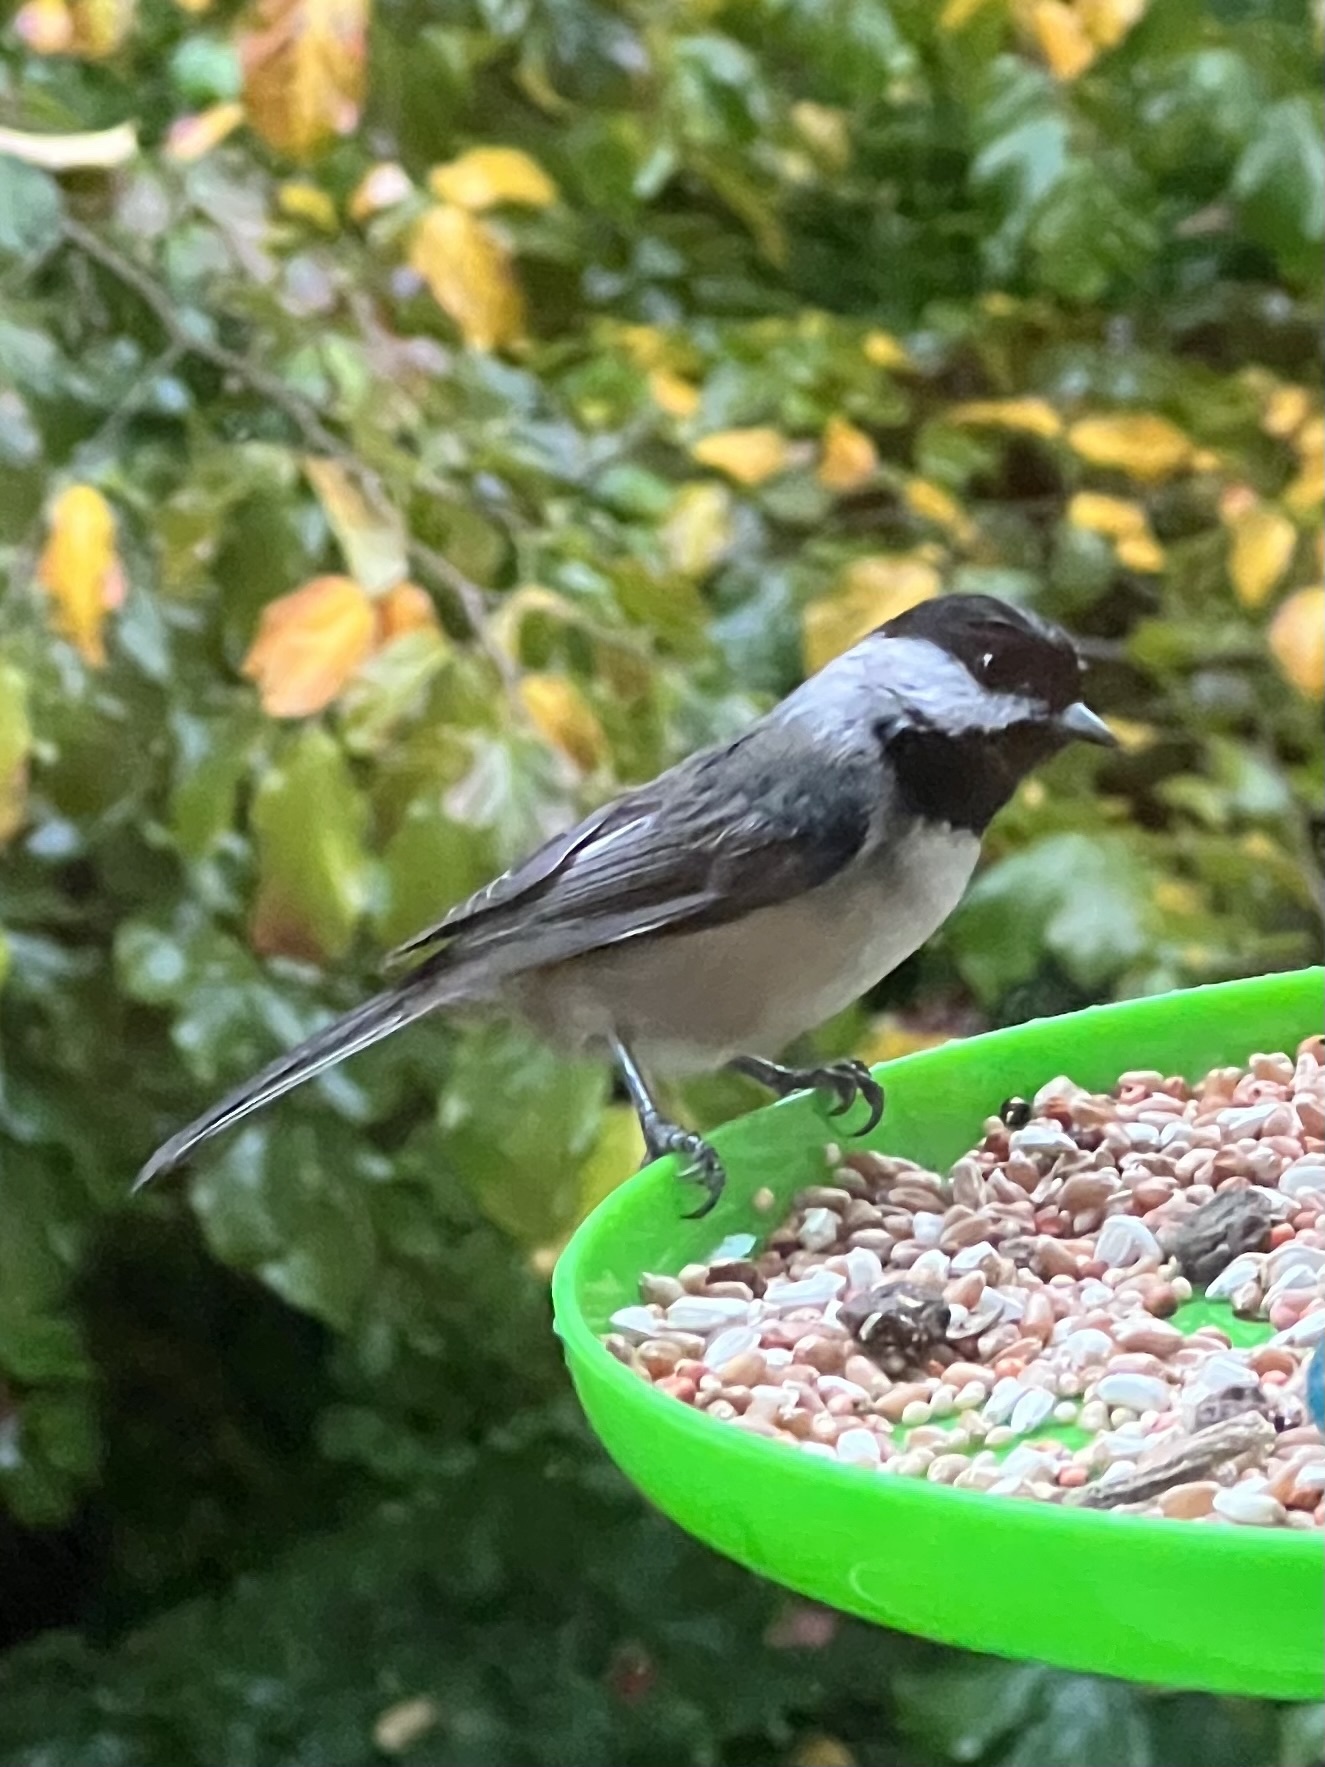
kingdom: Animalia
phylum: Chordata
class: Aves
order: Passeriformes
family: Paridae
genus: Poecile
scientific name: Poecile atricapillus
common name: Black-capped chickadee
